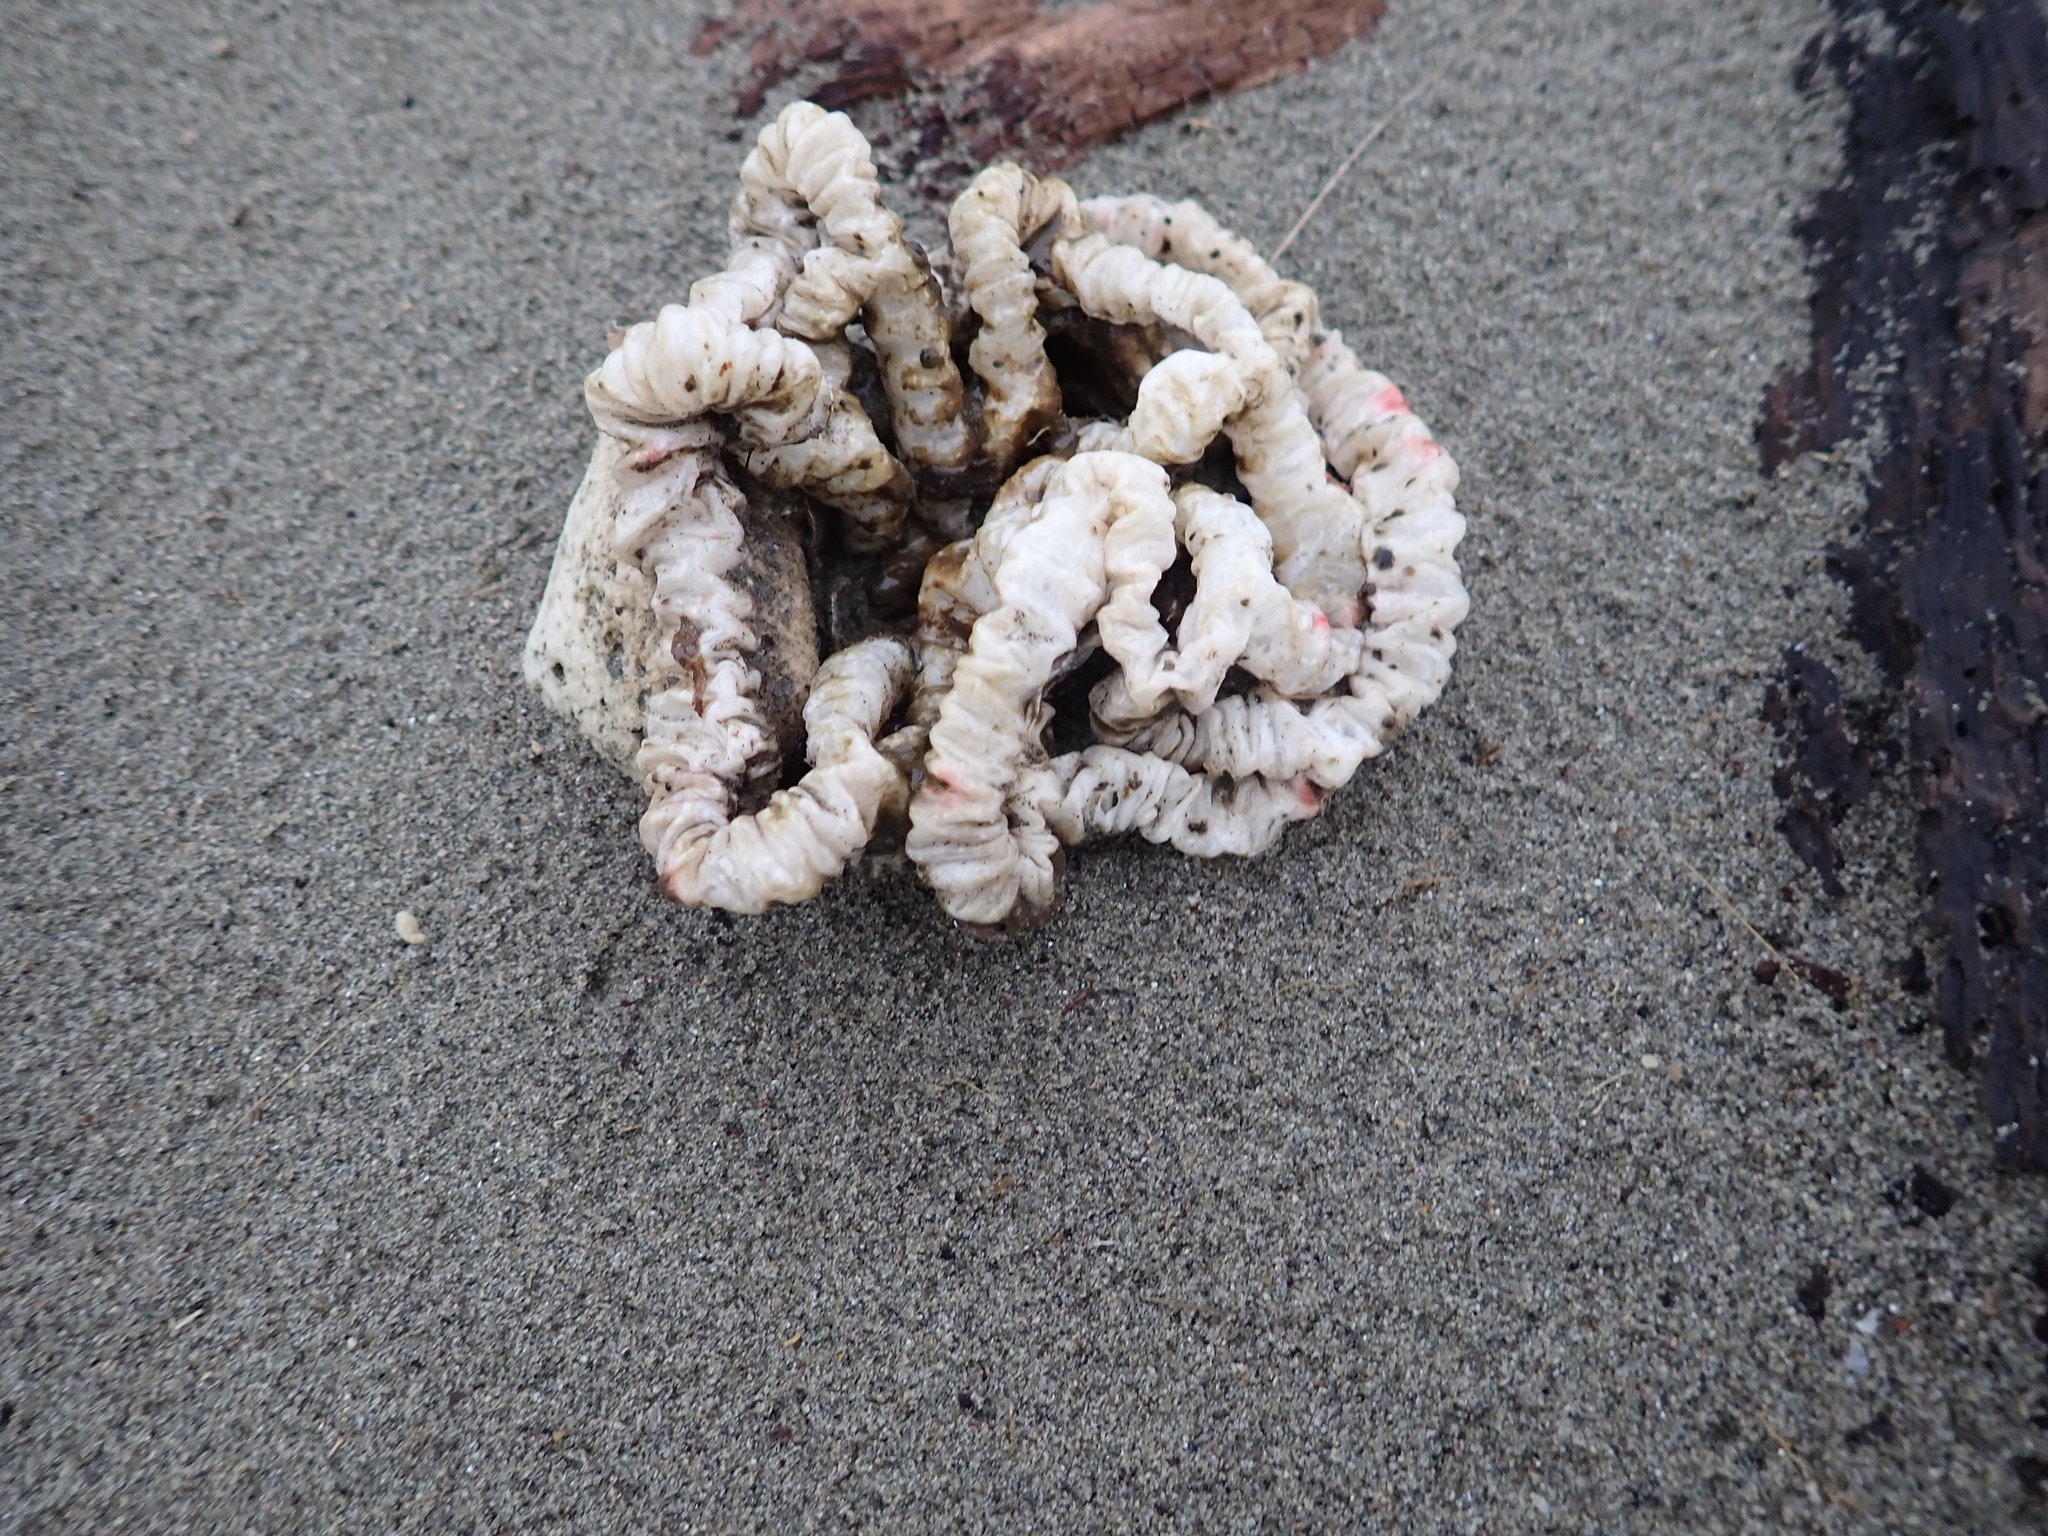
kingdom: Fungi
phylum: Basidiomycota
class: Agaricomycetes
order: Phallales
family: Phallaceae
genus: Ileodictyon
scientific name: Ileodictyon cibarium
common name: Basket fungus
